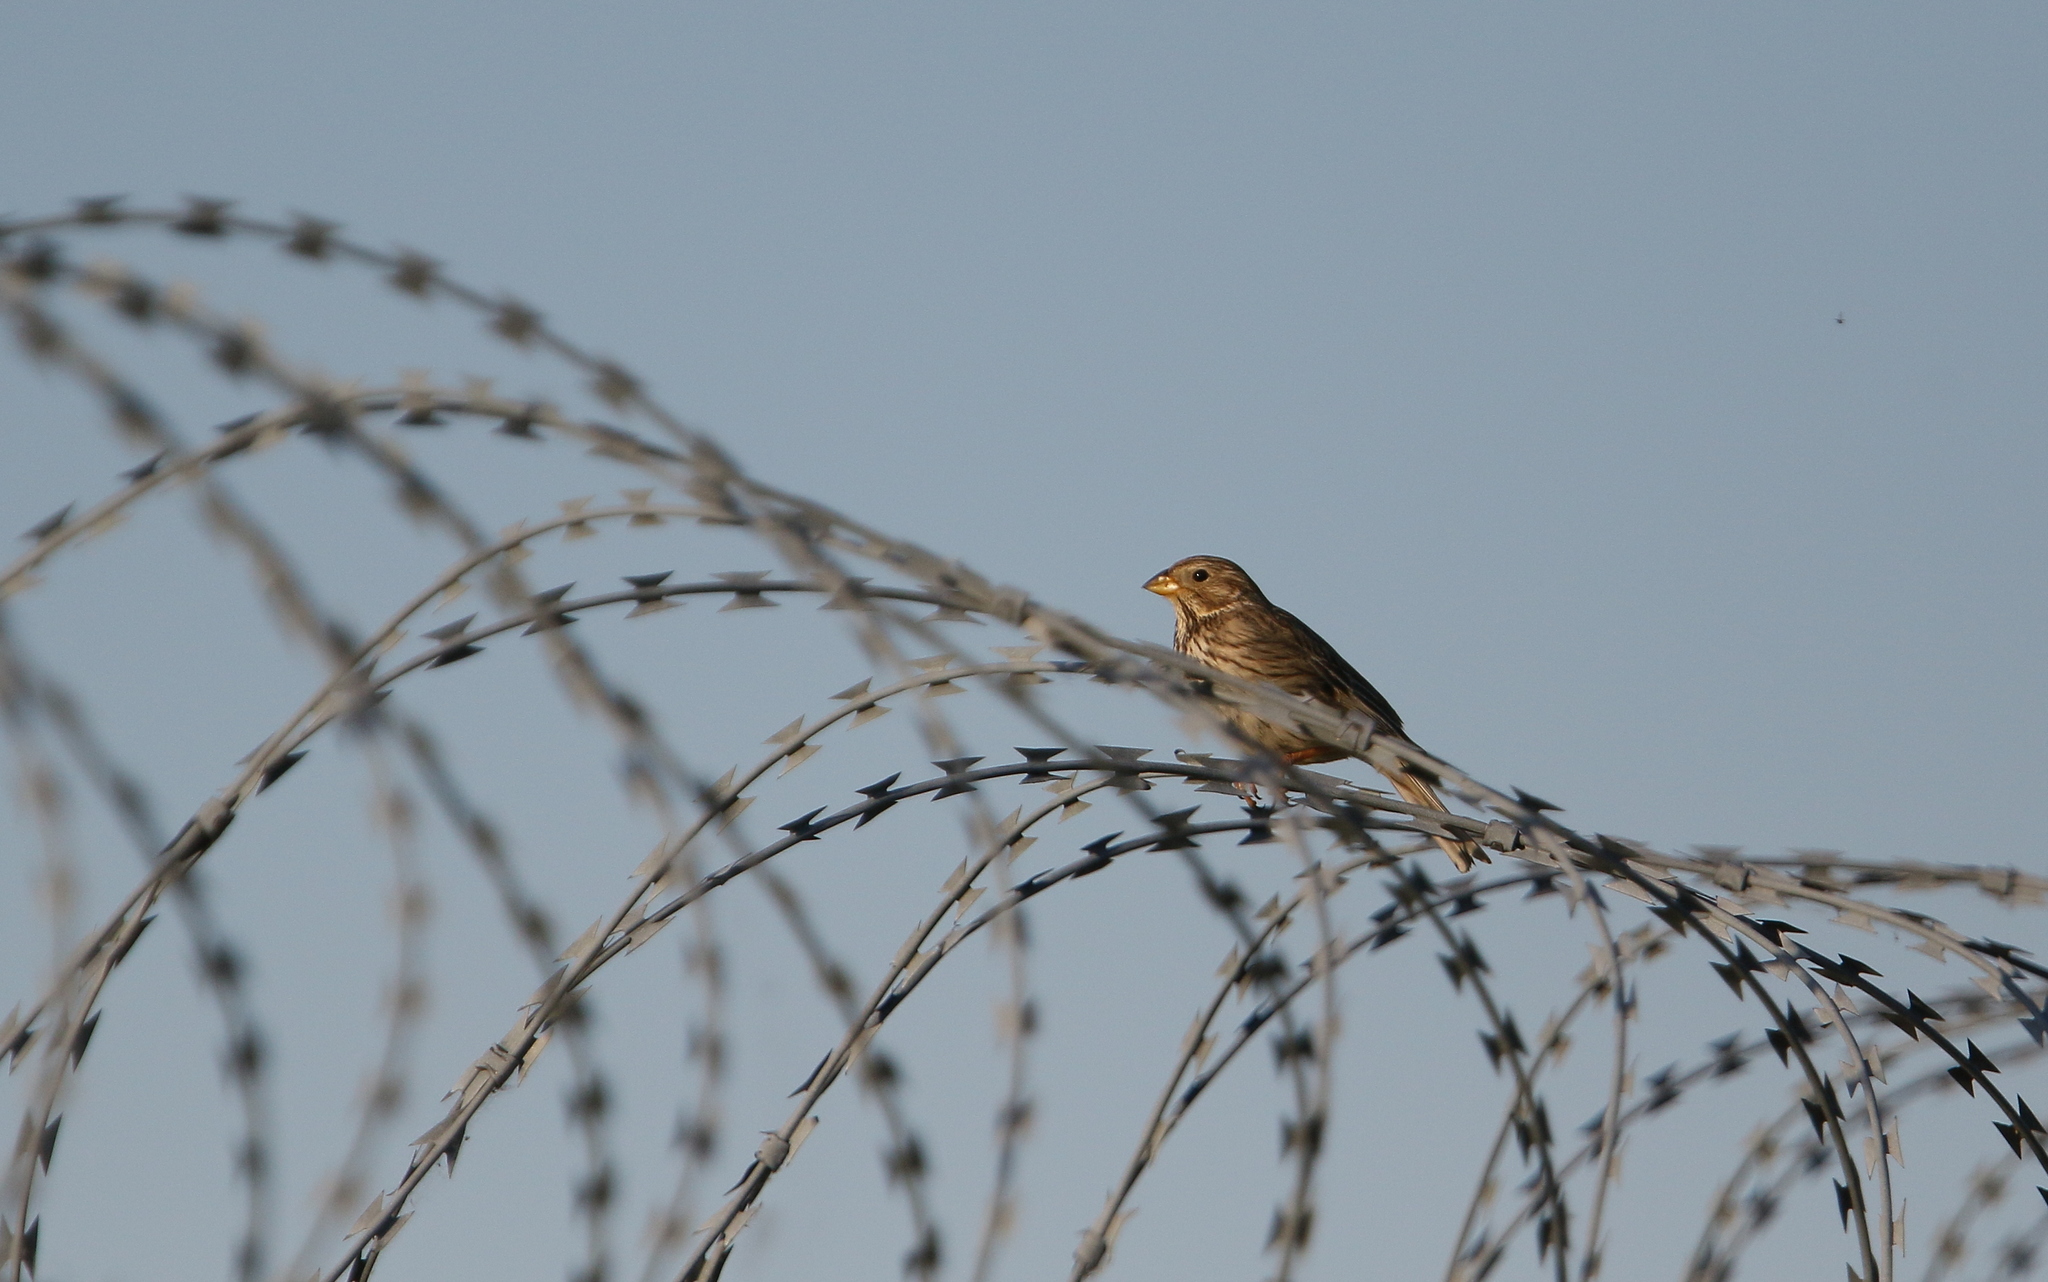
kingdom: Animalia
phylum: Chordata
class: Aves
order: Passeriformes
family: Emberizidae
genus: Emberiza
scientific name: Emberiza calandra
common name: Corn bunting
